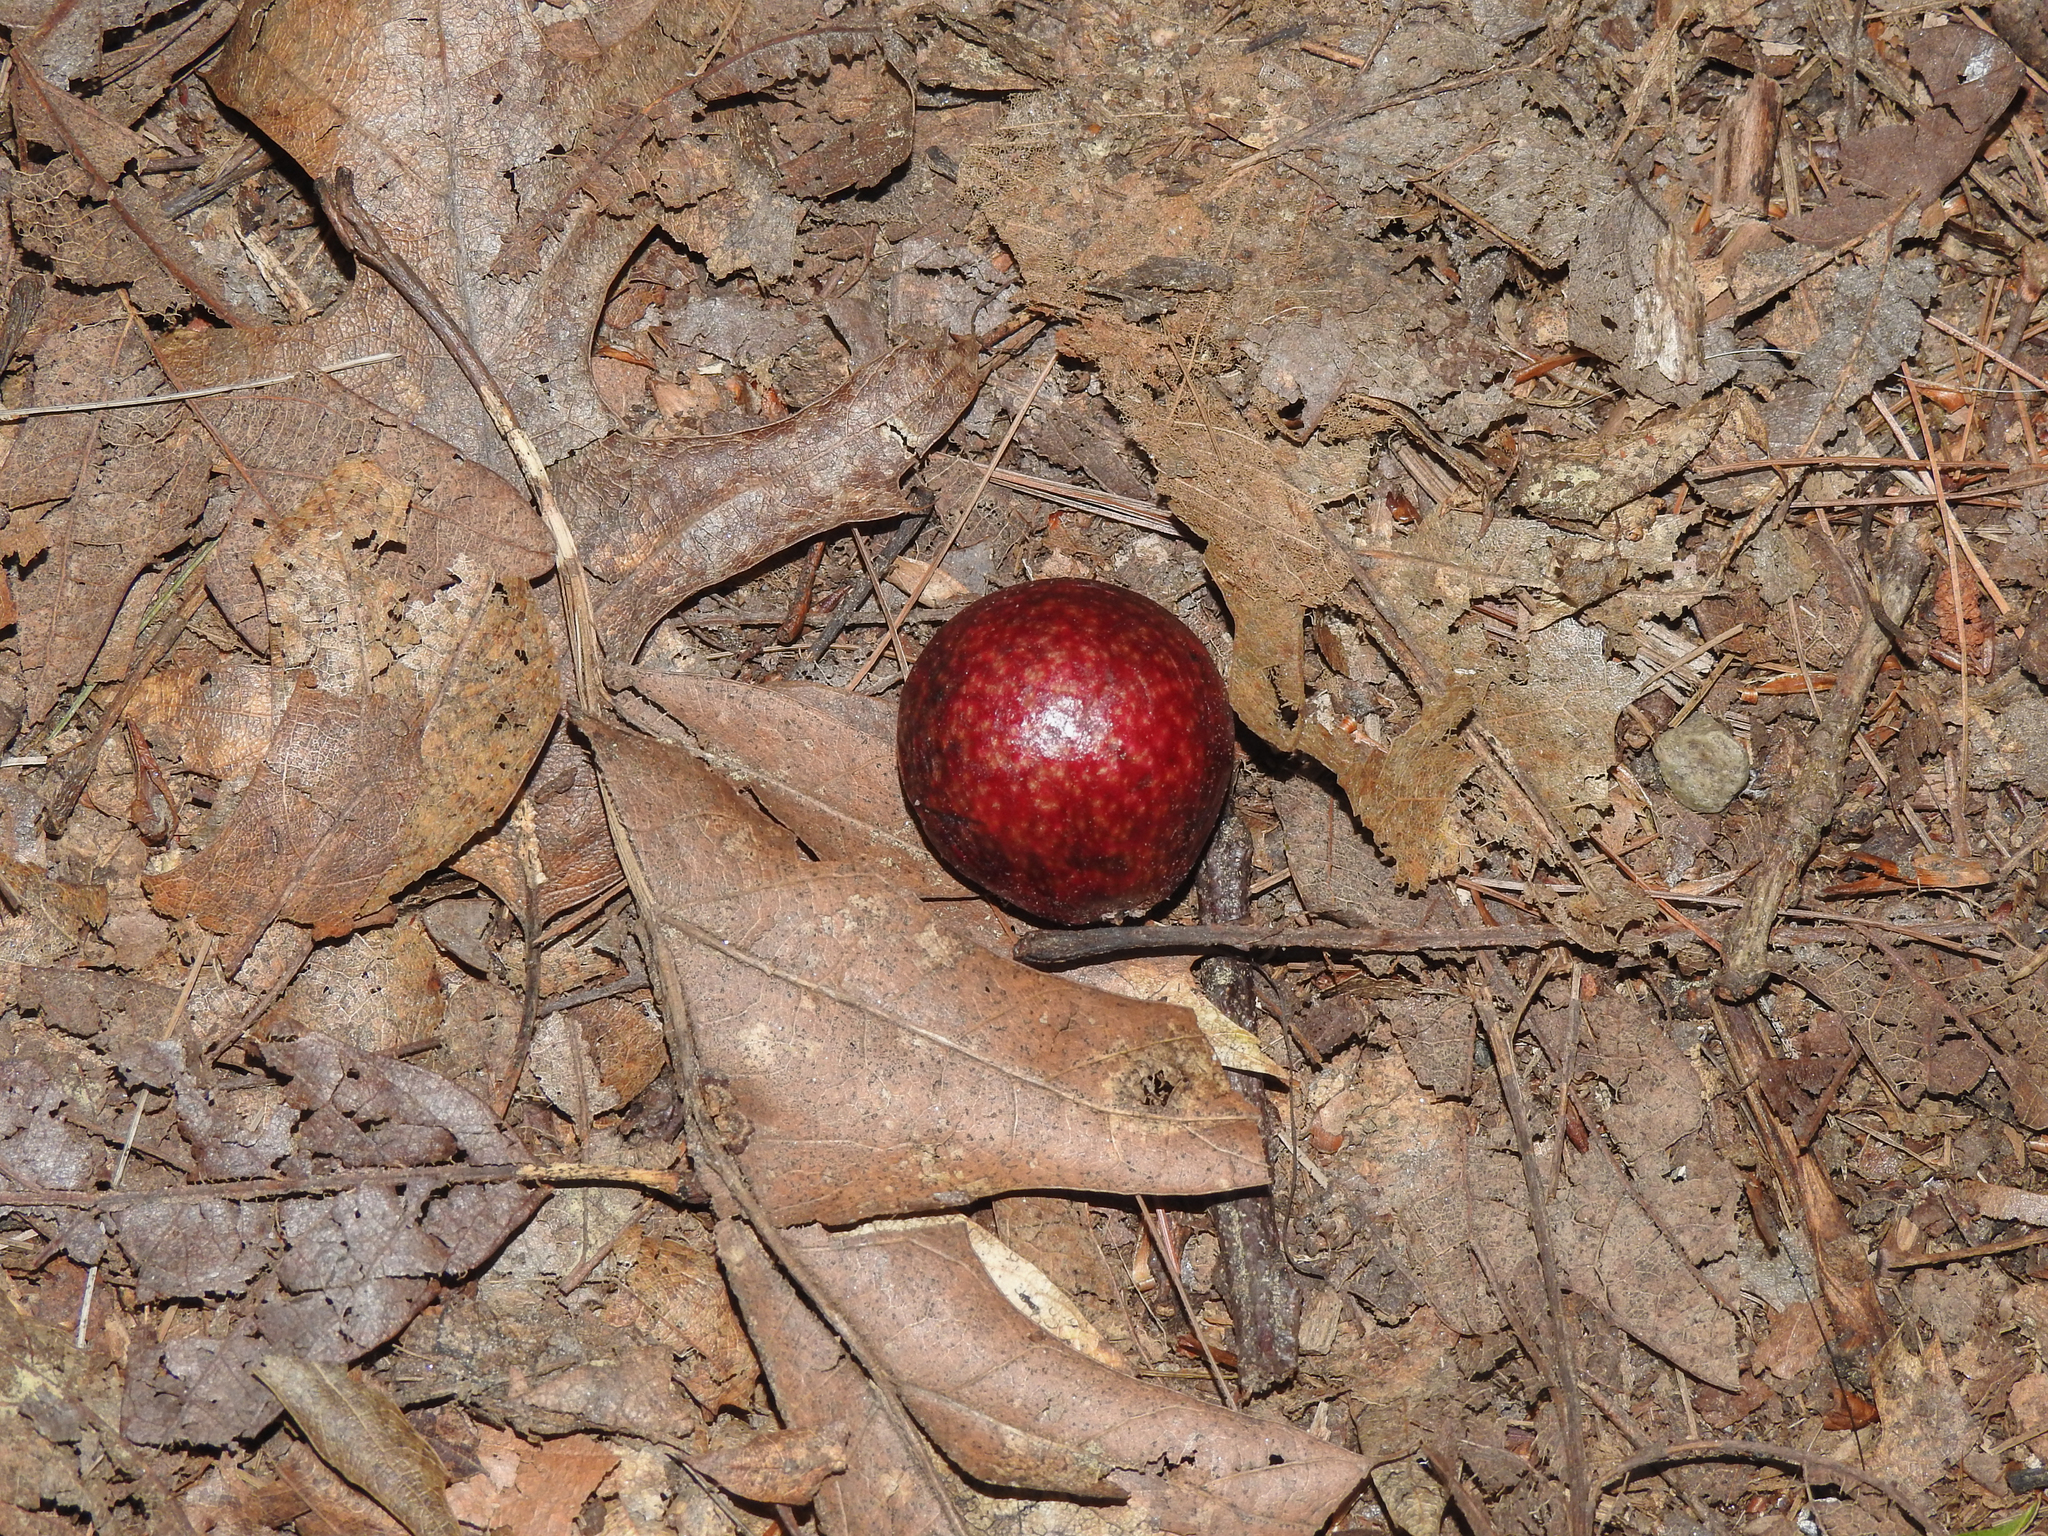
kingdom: Animalia
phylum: Arthropoda
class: Insecta
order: Hymenoptera
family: Cynipidae
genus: Amphibolips
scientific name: Amphibolips
